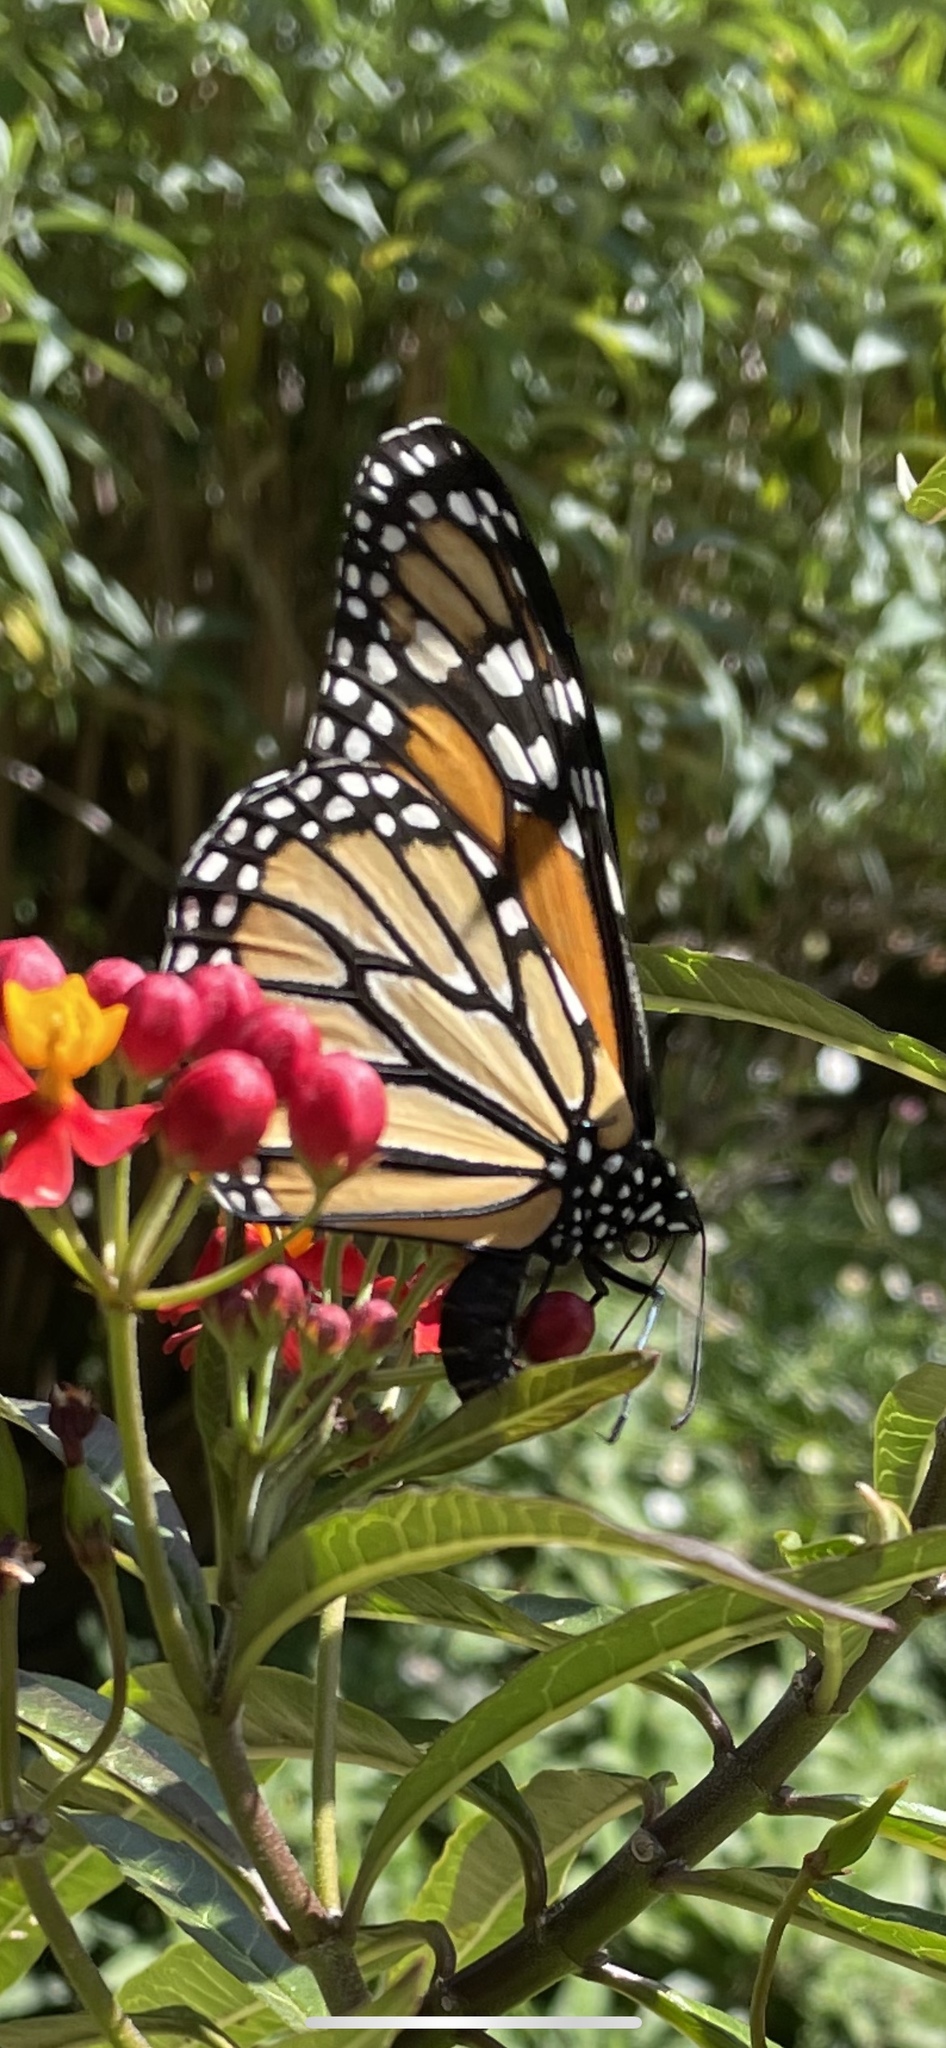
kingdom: Animalia
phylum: Arthropoda
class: Insecta
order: Lepidoptera
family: Nymphalidae
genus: Danaus
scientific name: Danaus plexippus
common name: Monarch
